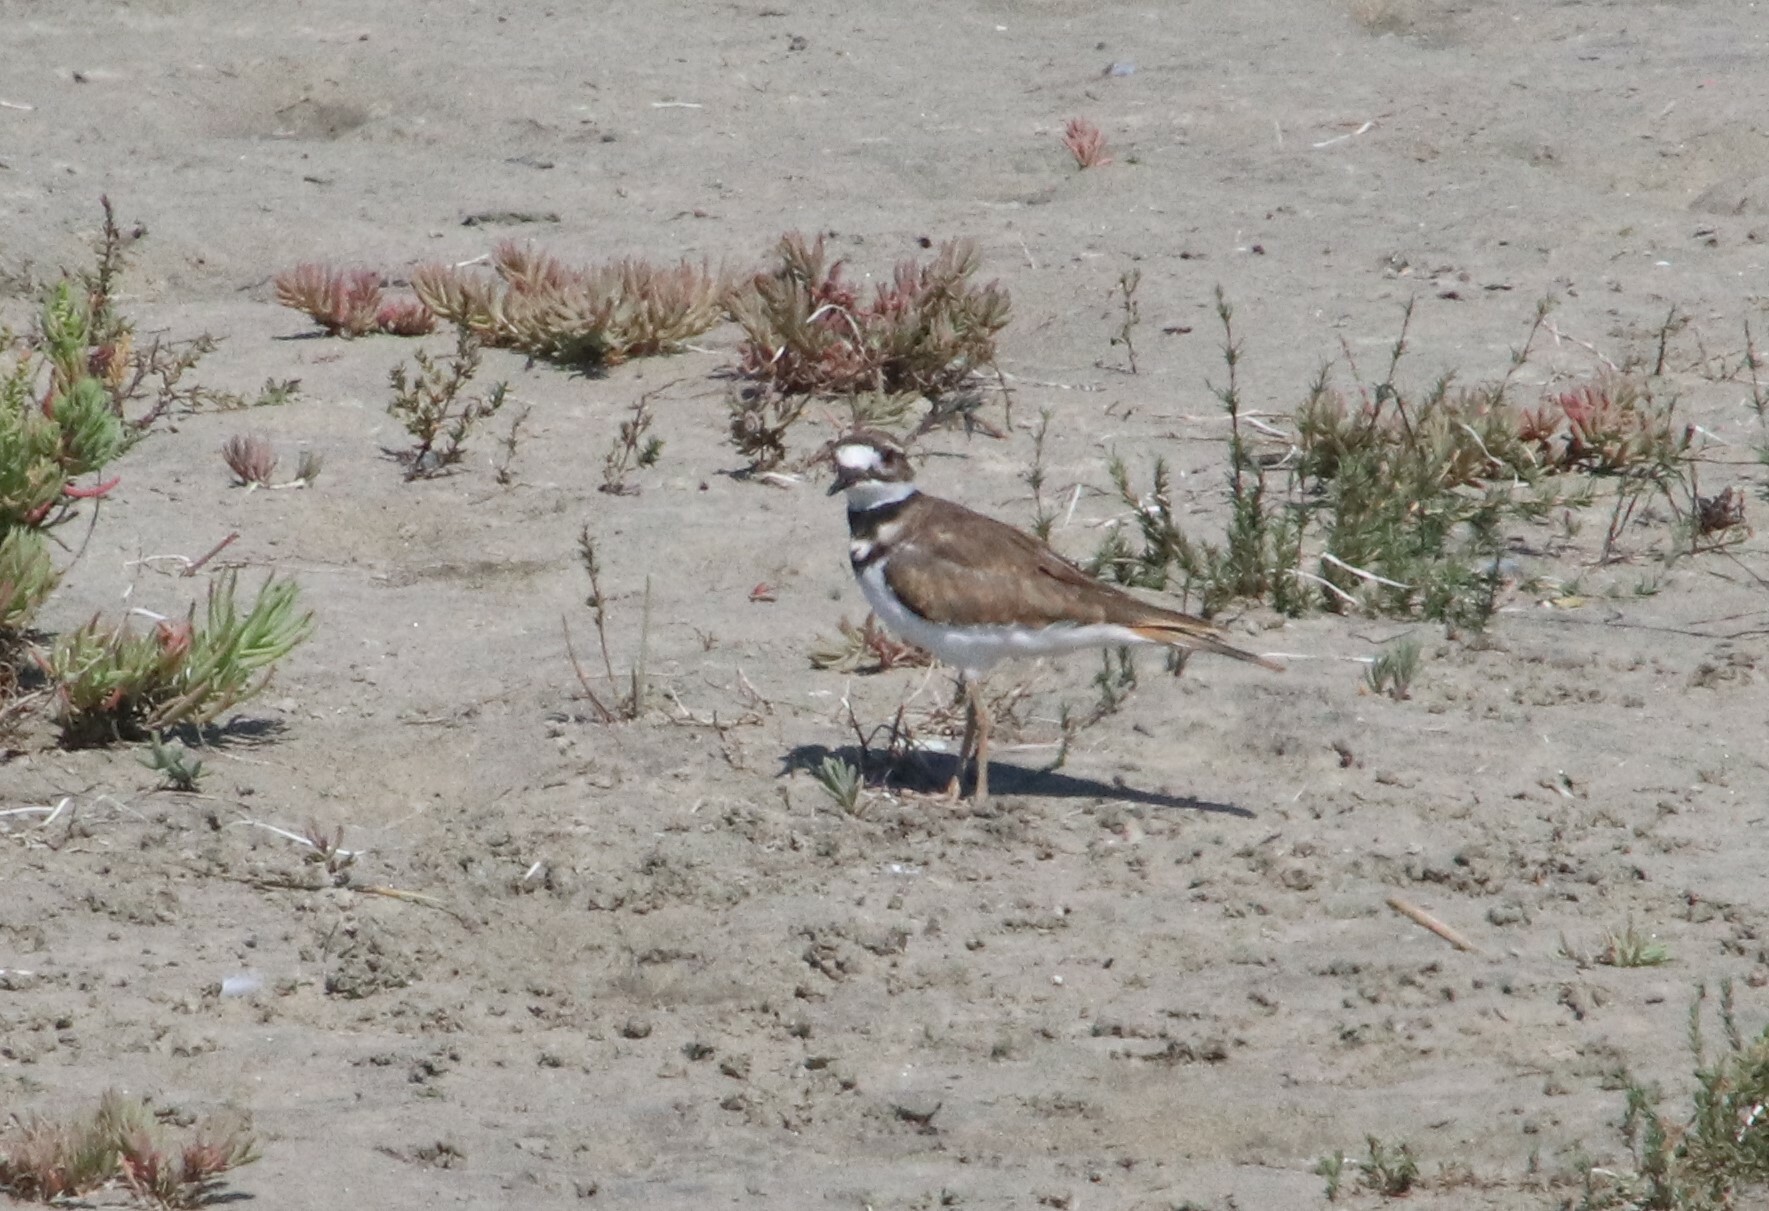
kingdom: Animalia
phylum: Chordata
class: Aves
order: Charadriiformes
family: Charadriidae
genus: Charadrius
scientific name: Charadrius vociferus
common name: Killdeer
